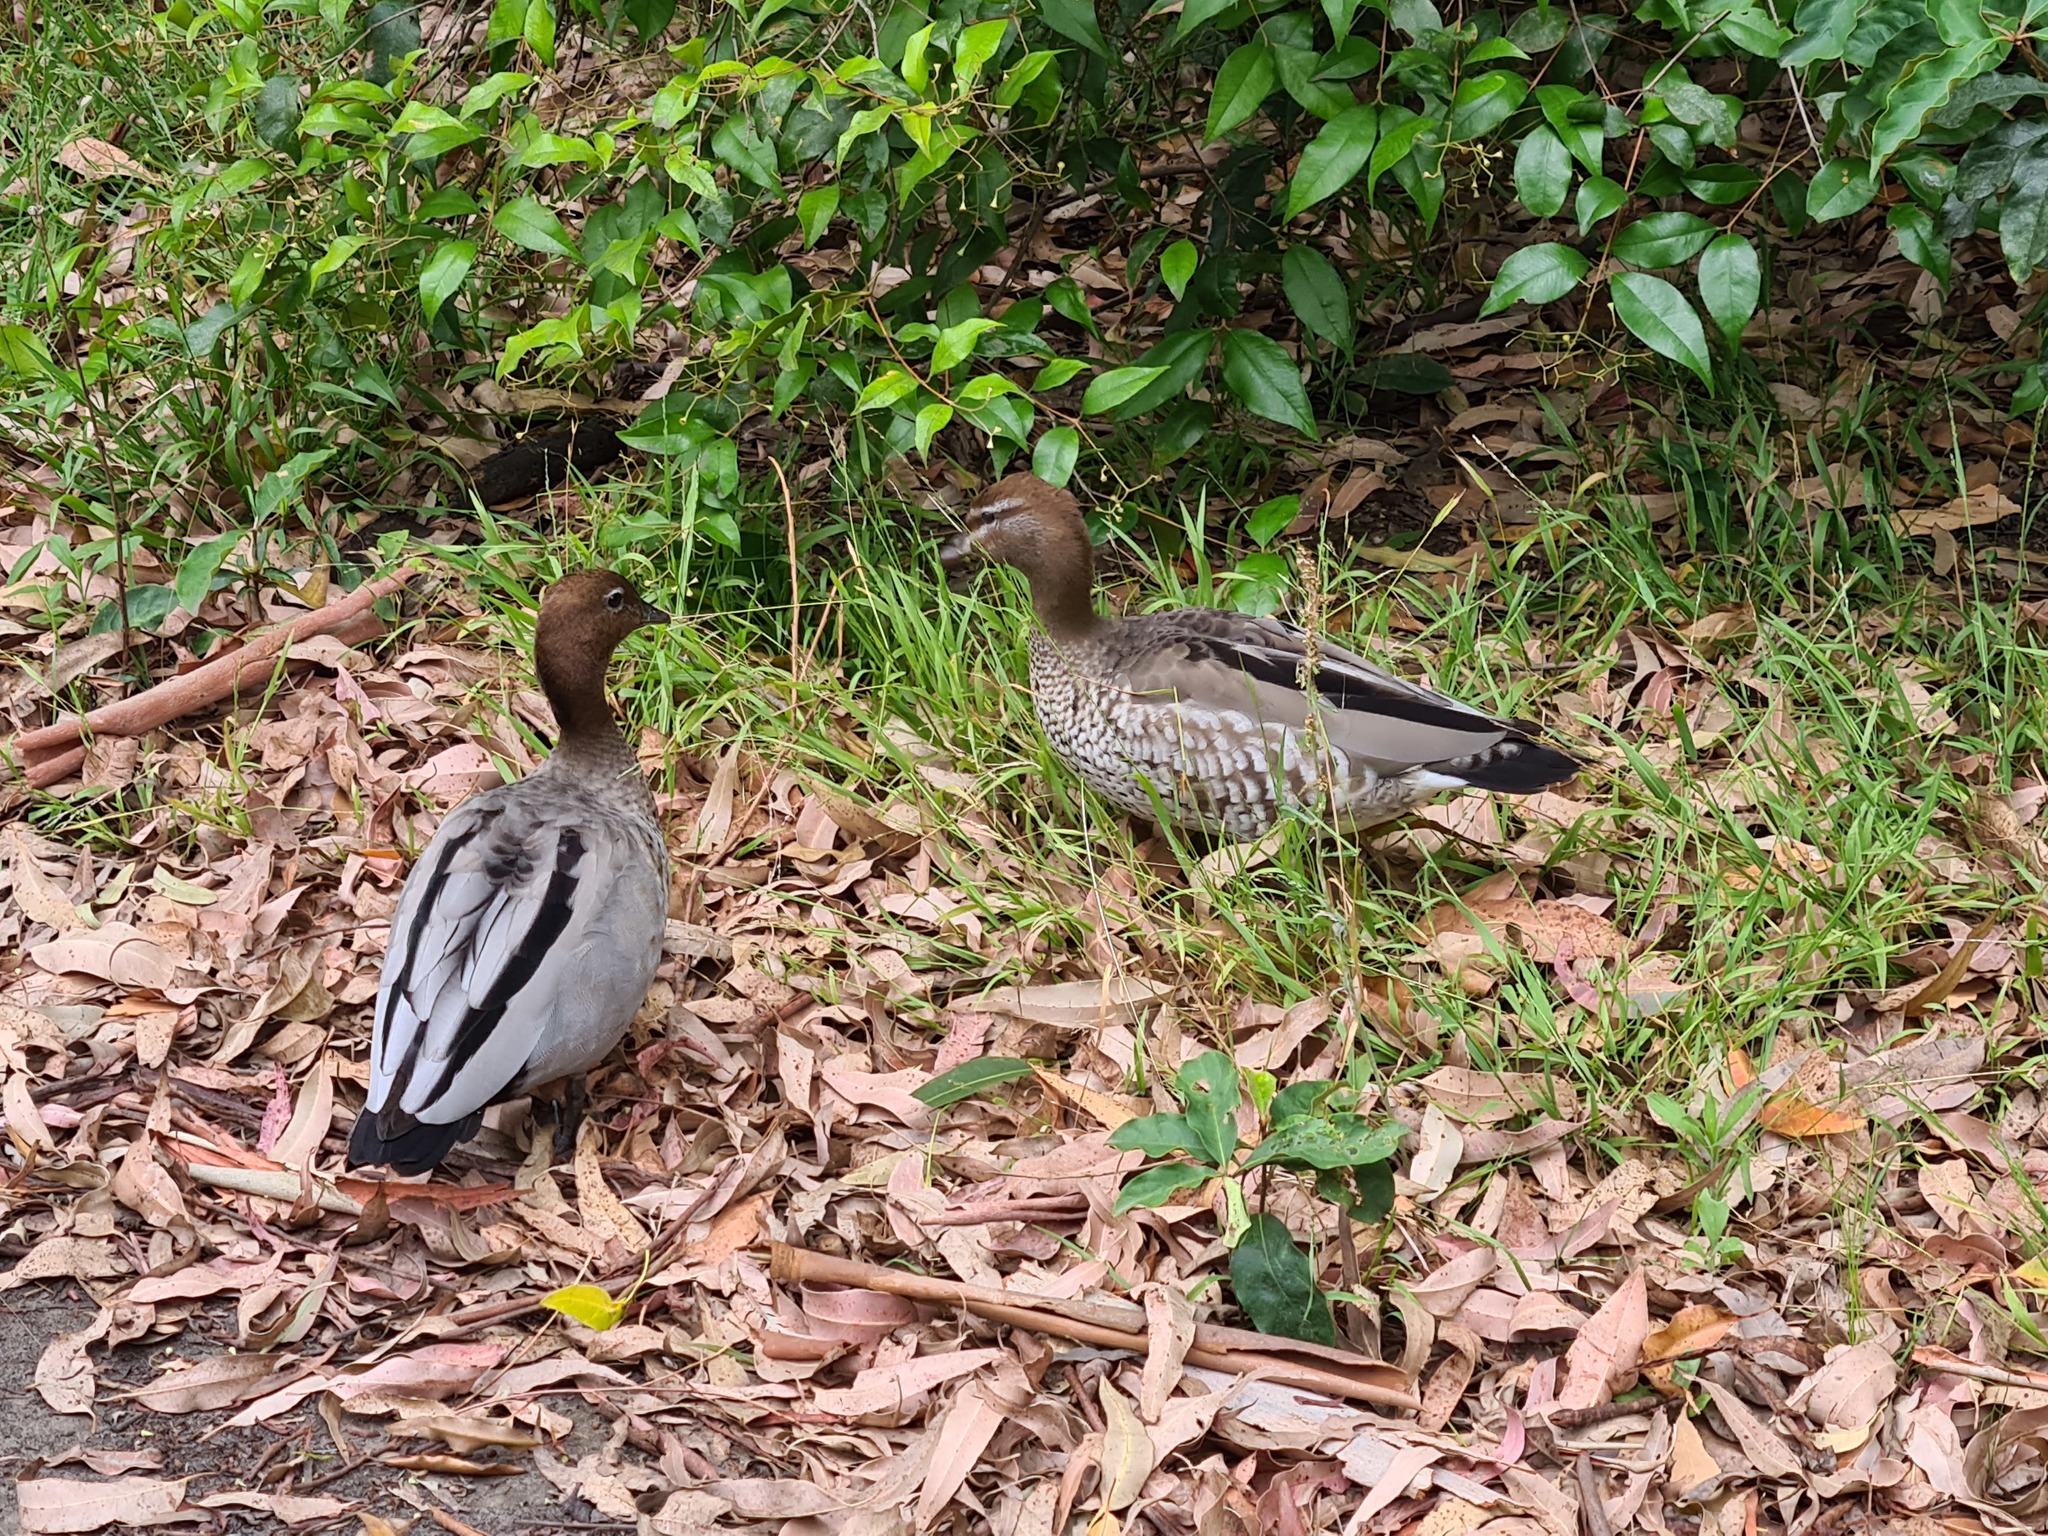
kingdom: Animalia
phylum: Chordata
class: Aves
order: Anseriformes
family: Anatidae
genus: Chenonetta
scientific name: Chenonetta jubata
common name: Maned duck
